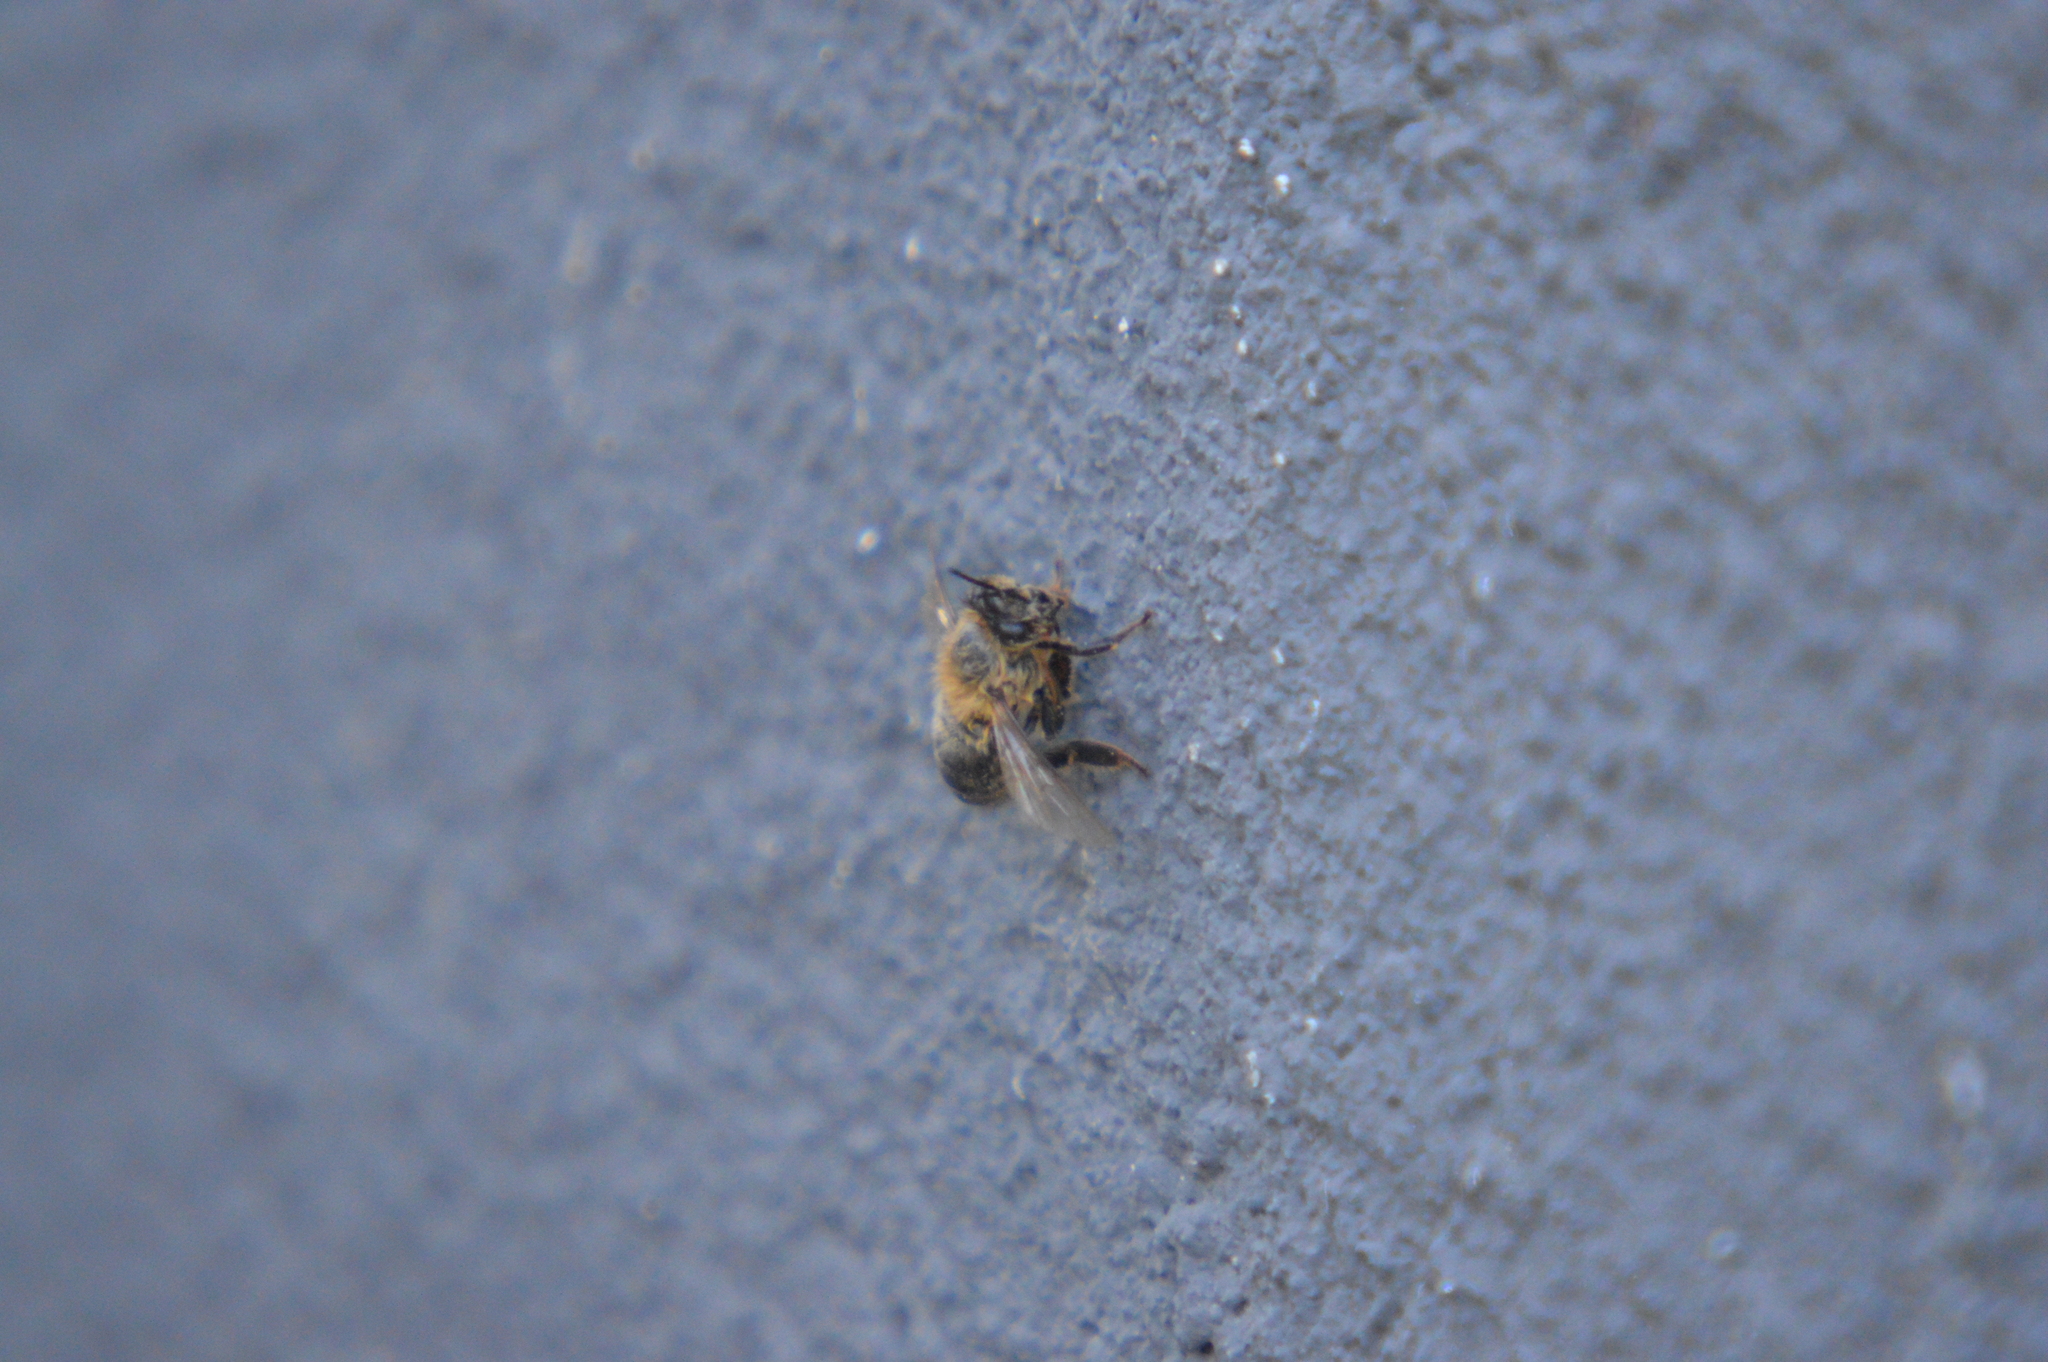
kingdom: Animalia
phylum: Arthropoda
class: Insecta
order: Hymenoptera
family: Apidae
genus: Apis
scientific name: Apis mellifera
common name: Honey bee
